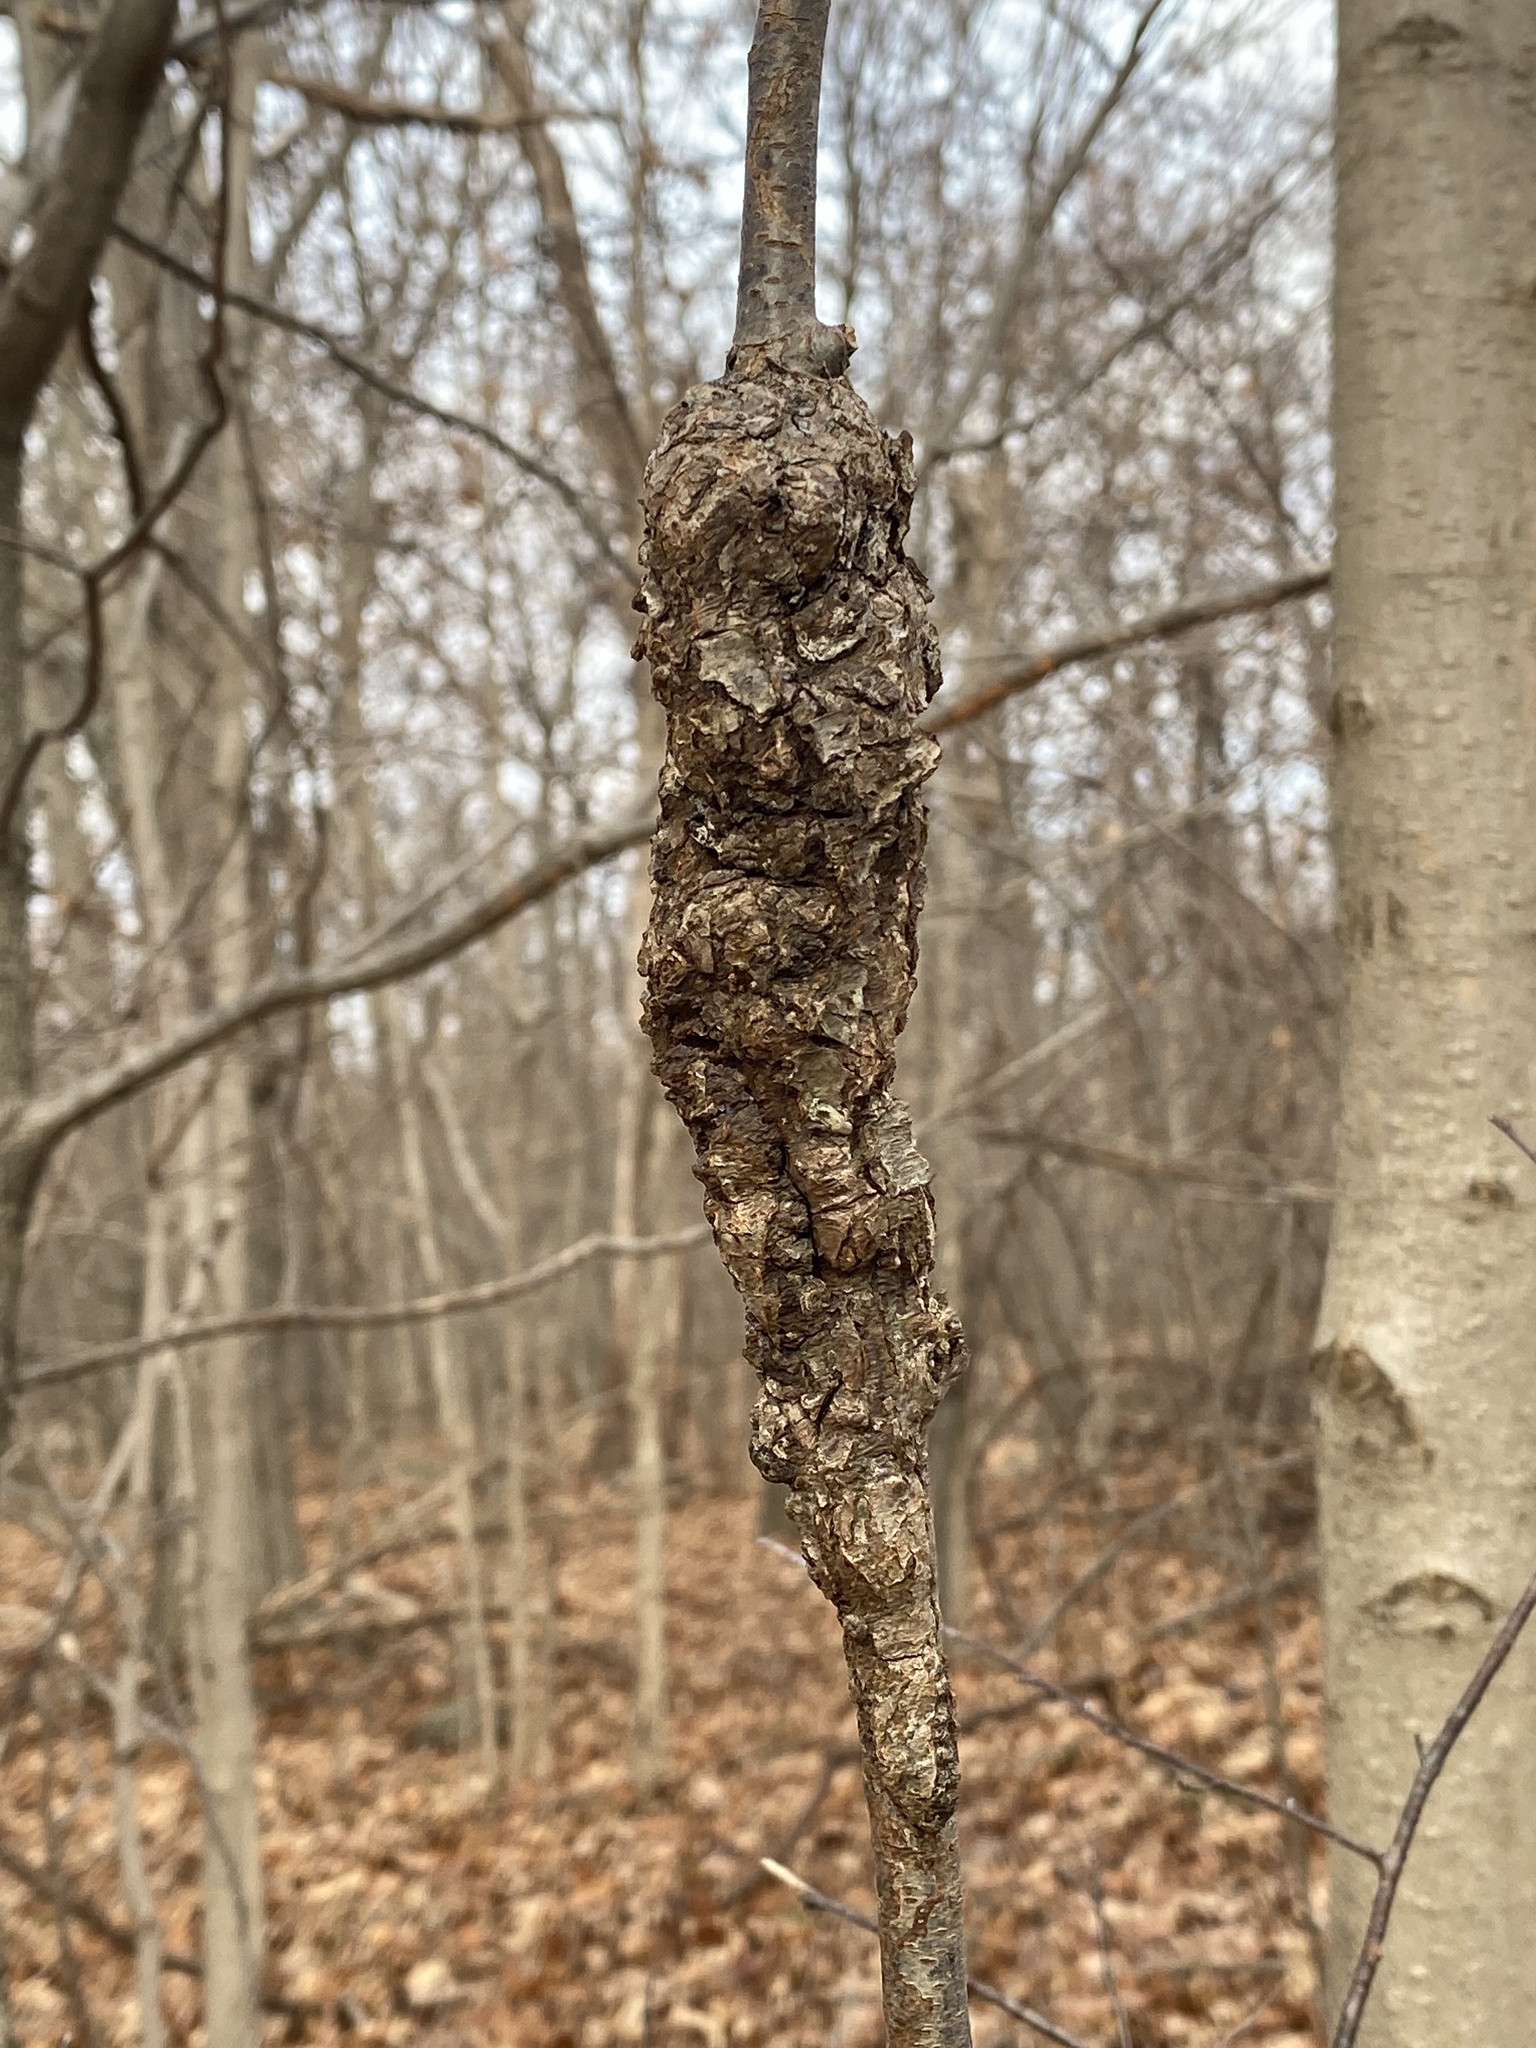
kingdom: Fungi
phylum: Ascomycota
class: Dothideomycetes
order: Venturiales
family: Venturiaceae
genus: Apiosporina
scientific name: Apiosporina morbosa
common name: Black knot
